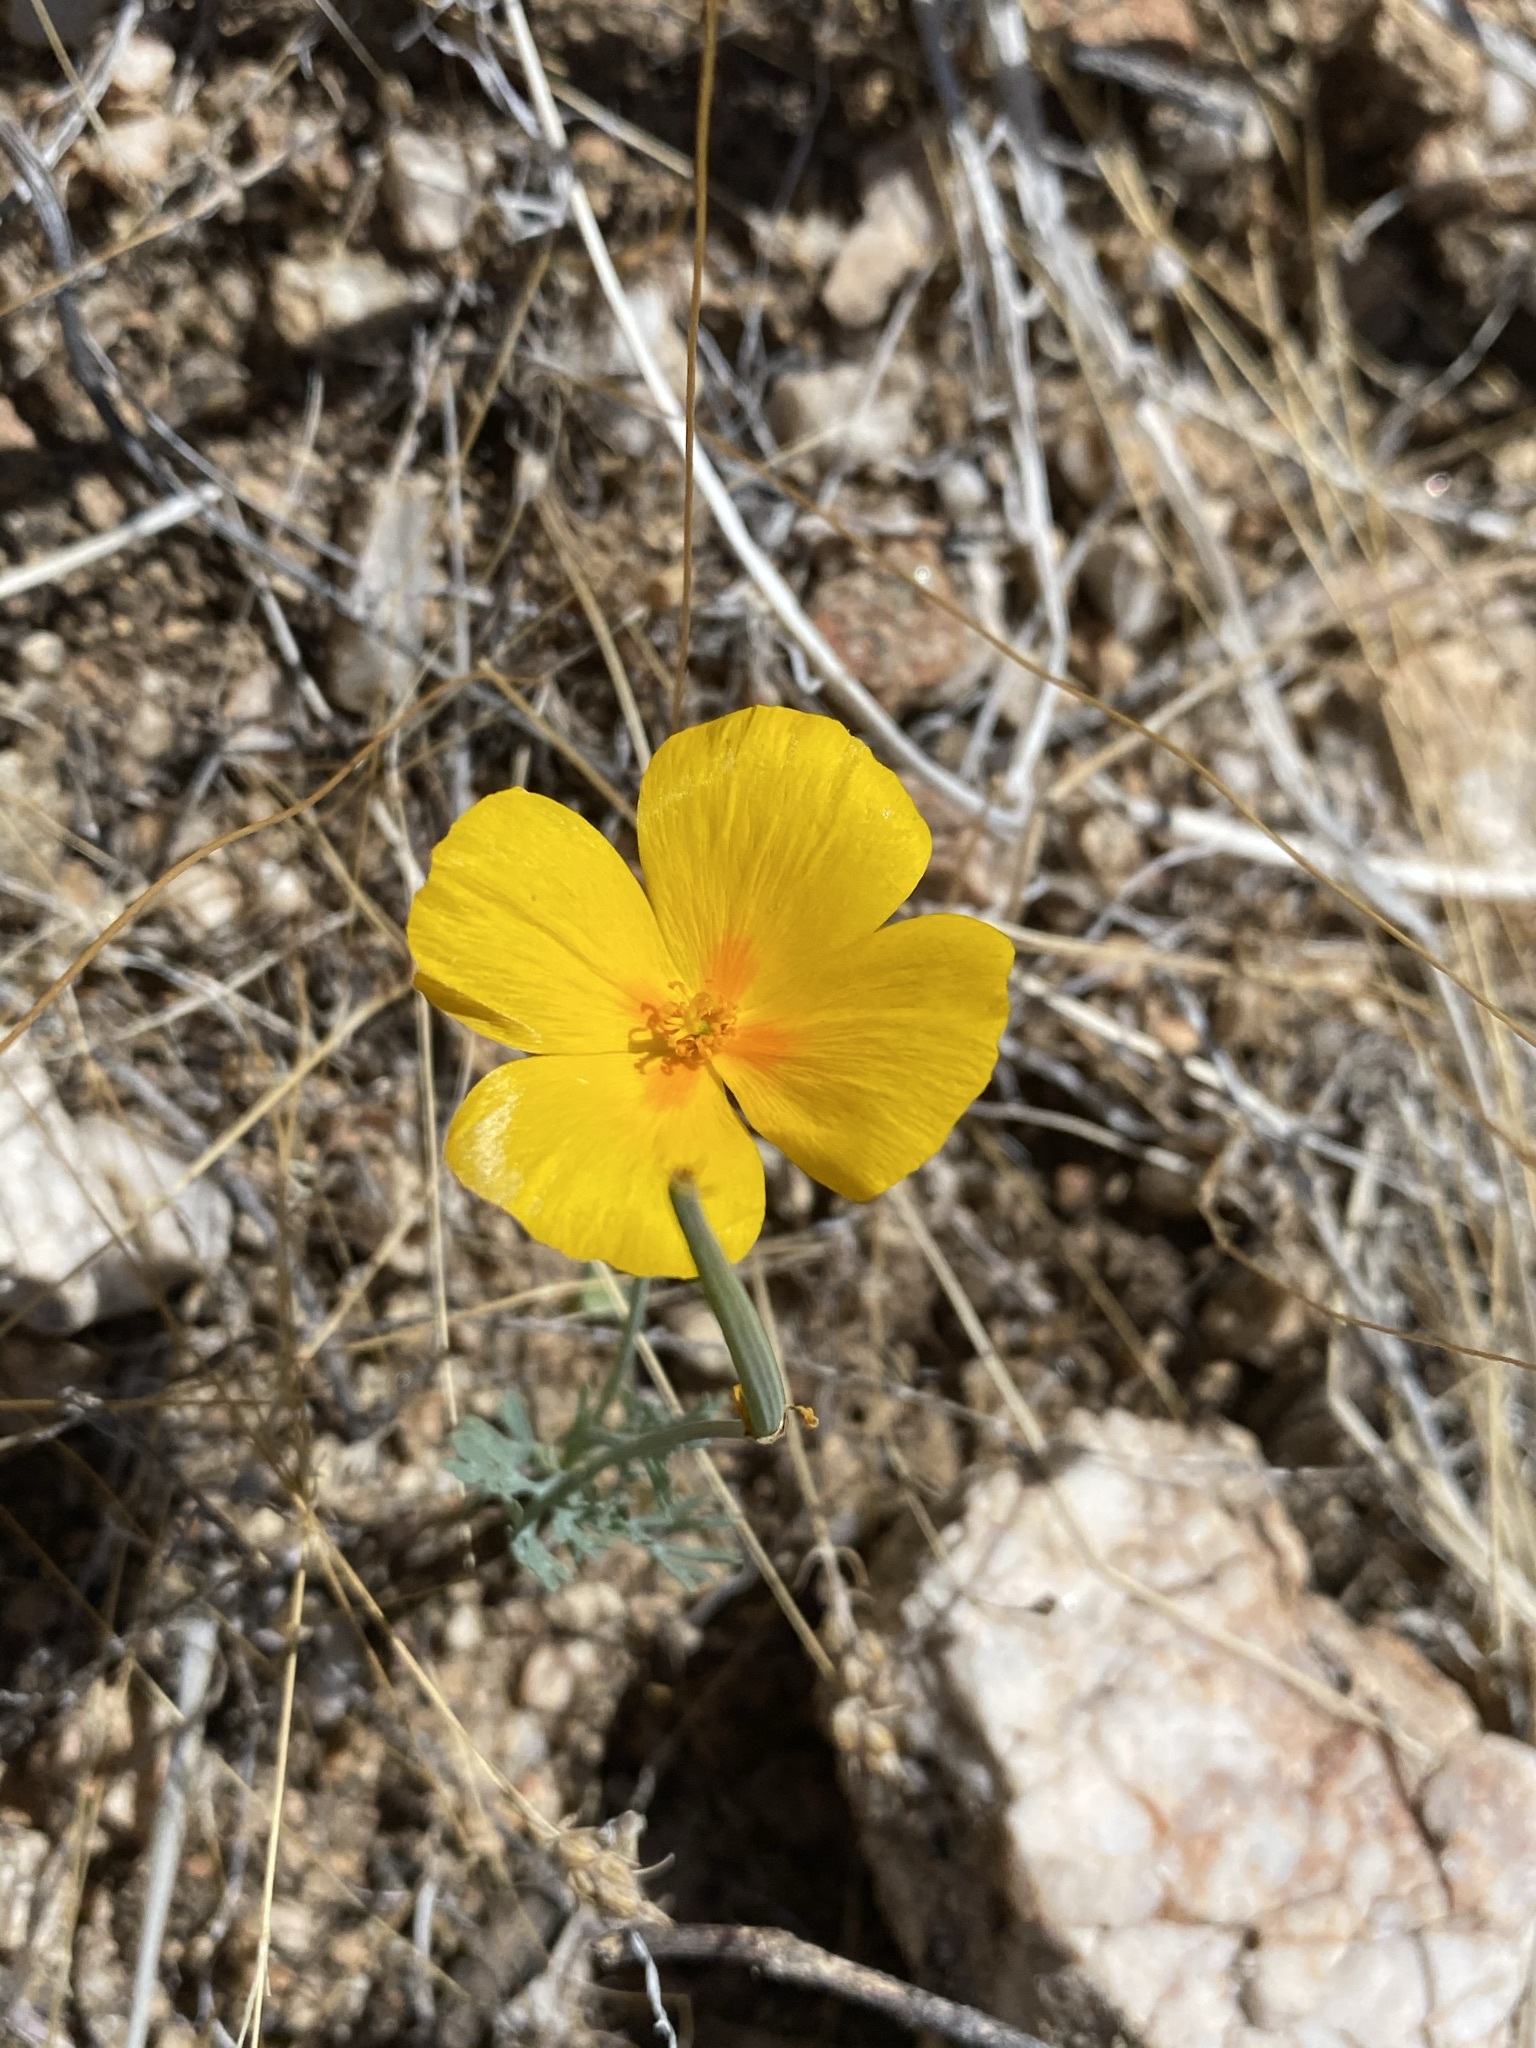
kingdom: Plantae
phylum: Tracheophyta
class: Magnoliopsida
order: Ranunculales
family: Papaveraceae
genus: Eschscholzia
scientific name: Eschscholzia californica
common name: California poppy
